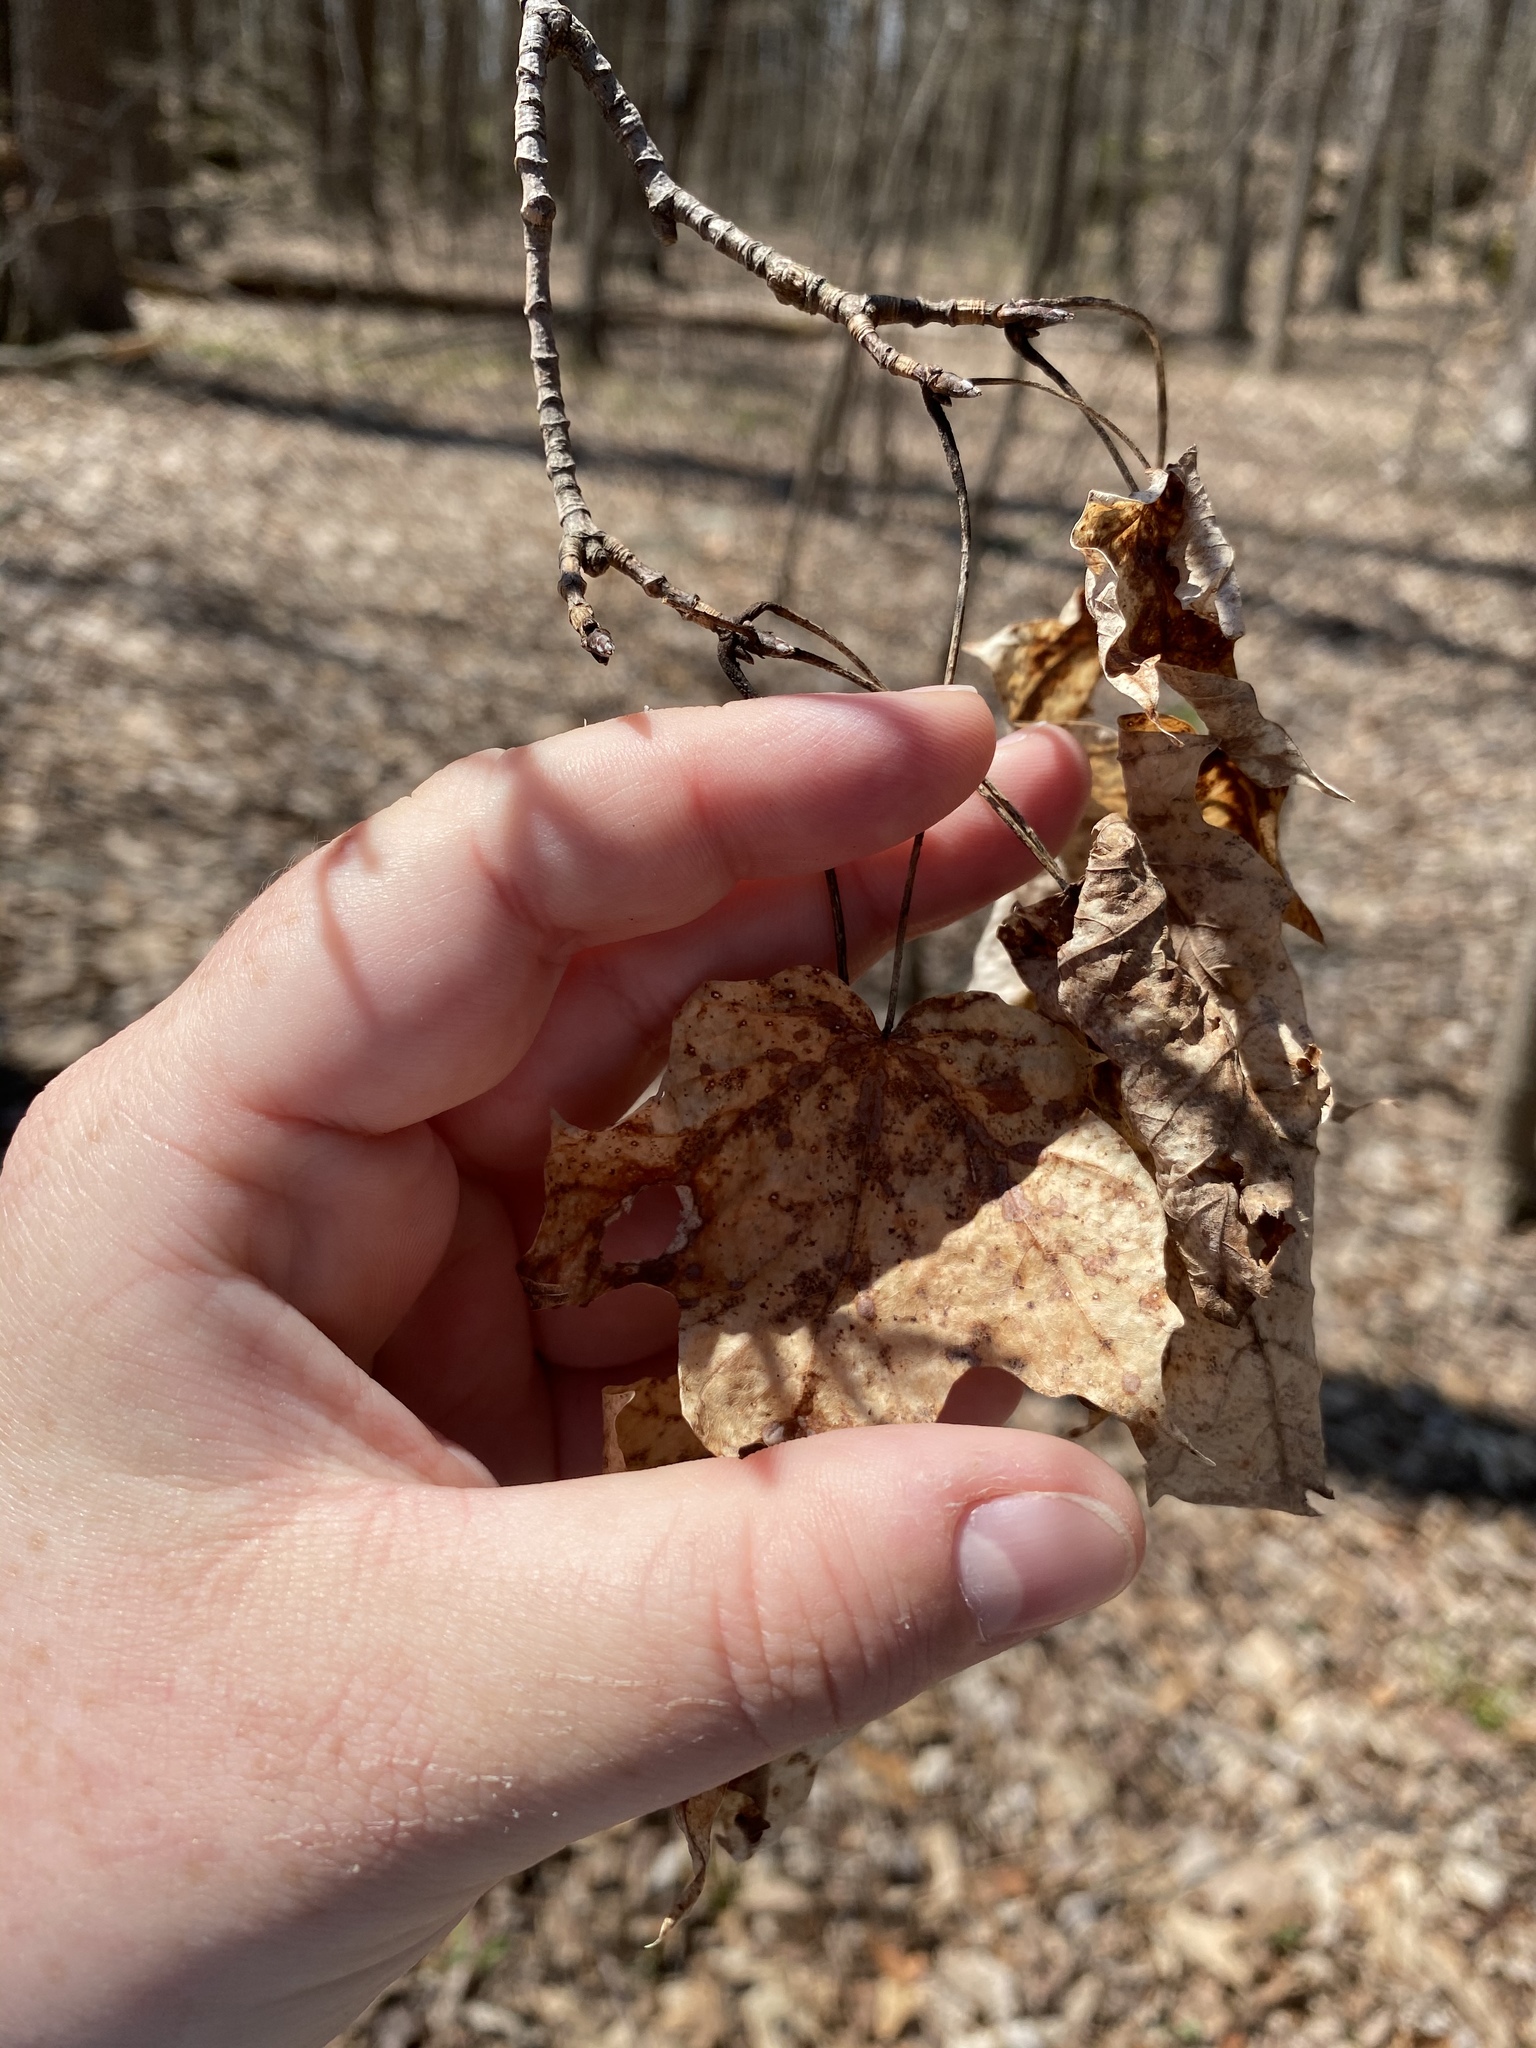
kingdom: Plantae
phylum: Tracheophyta
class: Magnoliopsida
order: Sapindales
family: Sapindaceae
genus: Acer
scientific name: Acer saccharum
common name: Sugar maple
